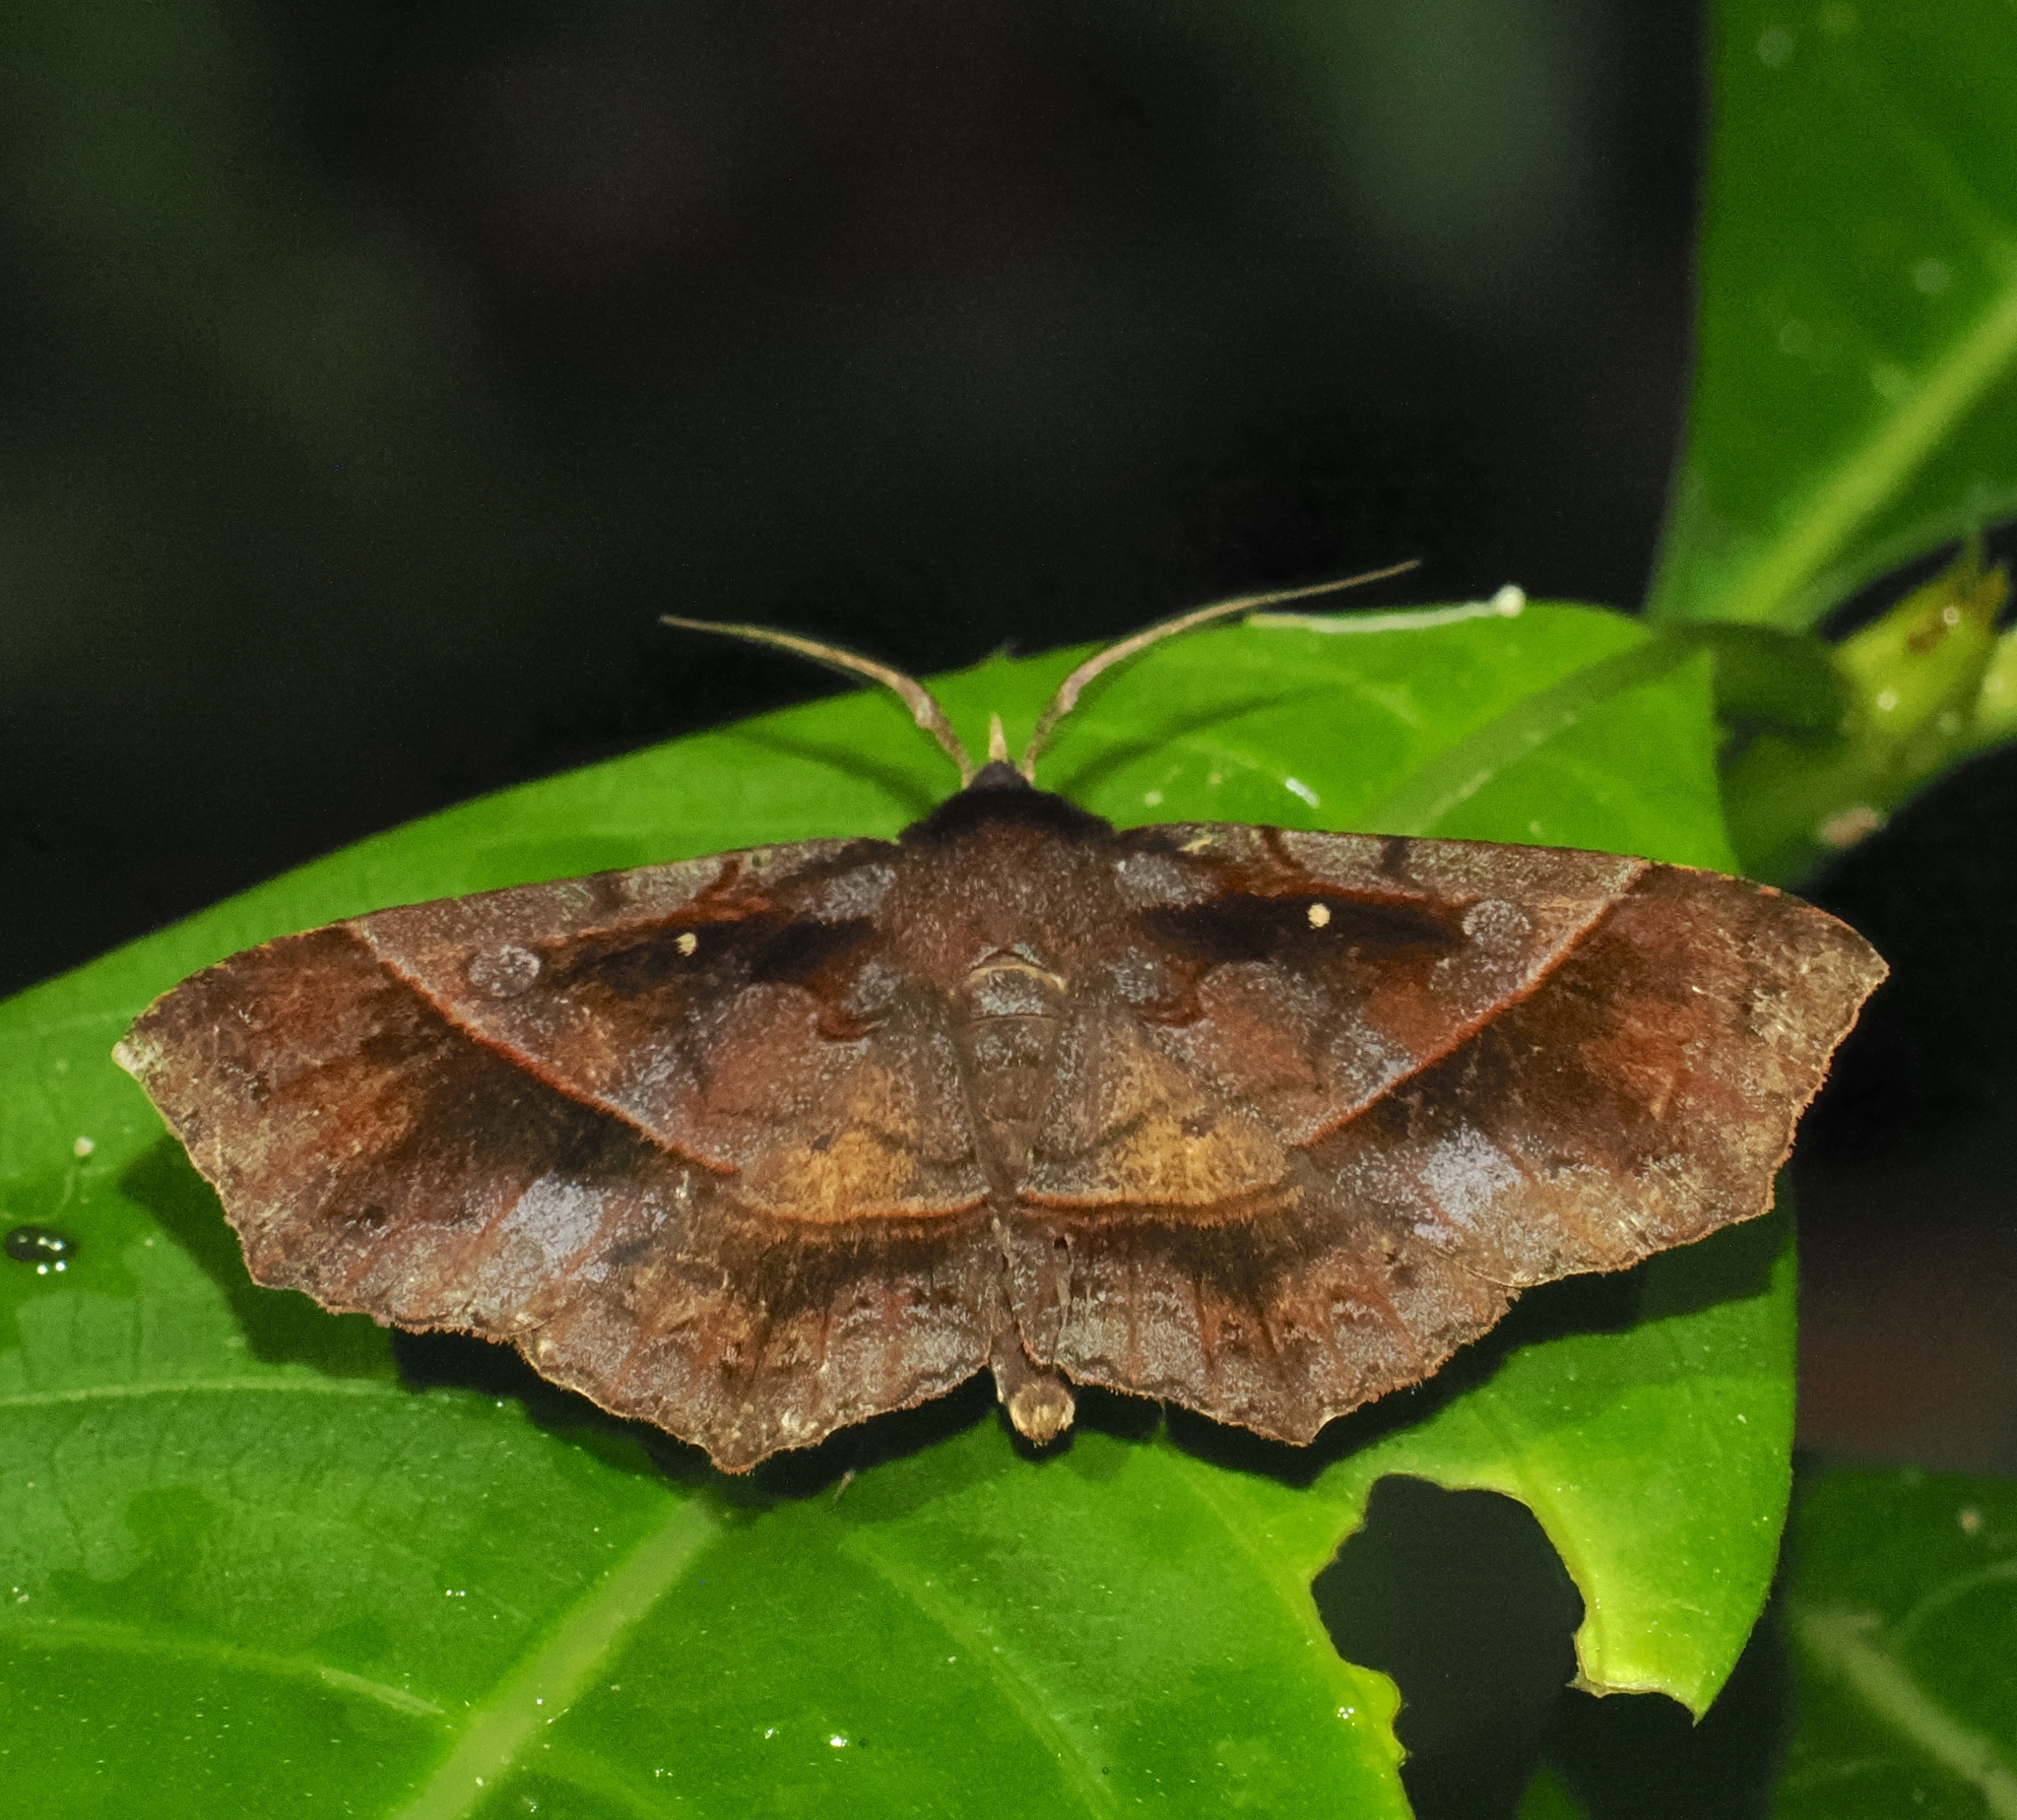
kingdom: Animalia
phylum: Arthropoda
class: Insecta
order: Lepidoptera
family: Erebidae
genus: Systremma
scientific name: Systremma ennomodes
